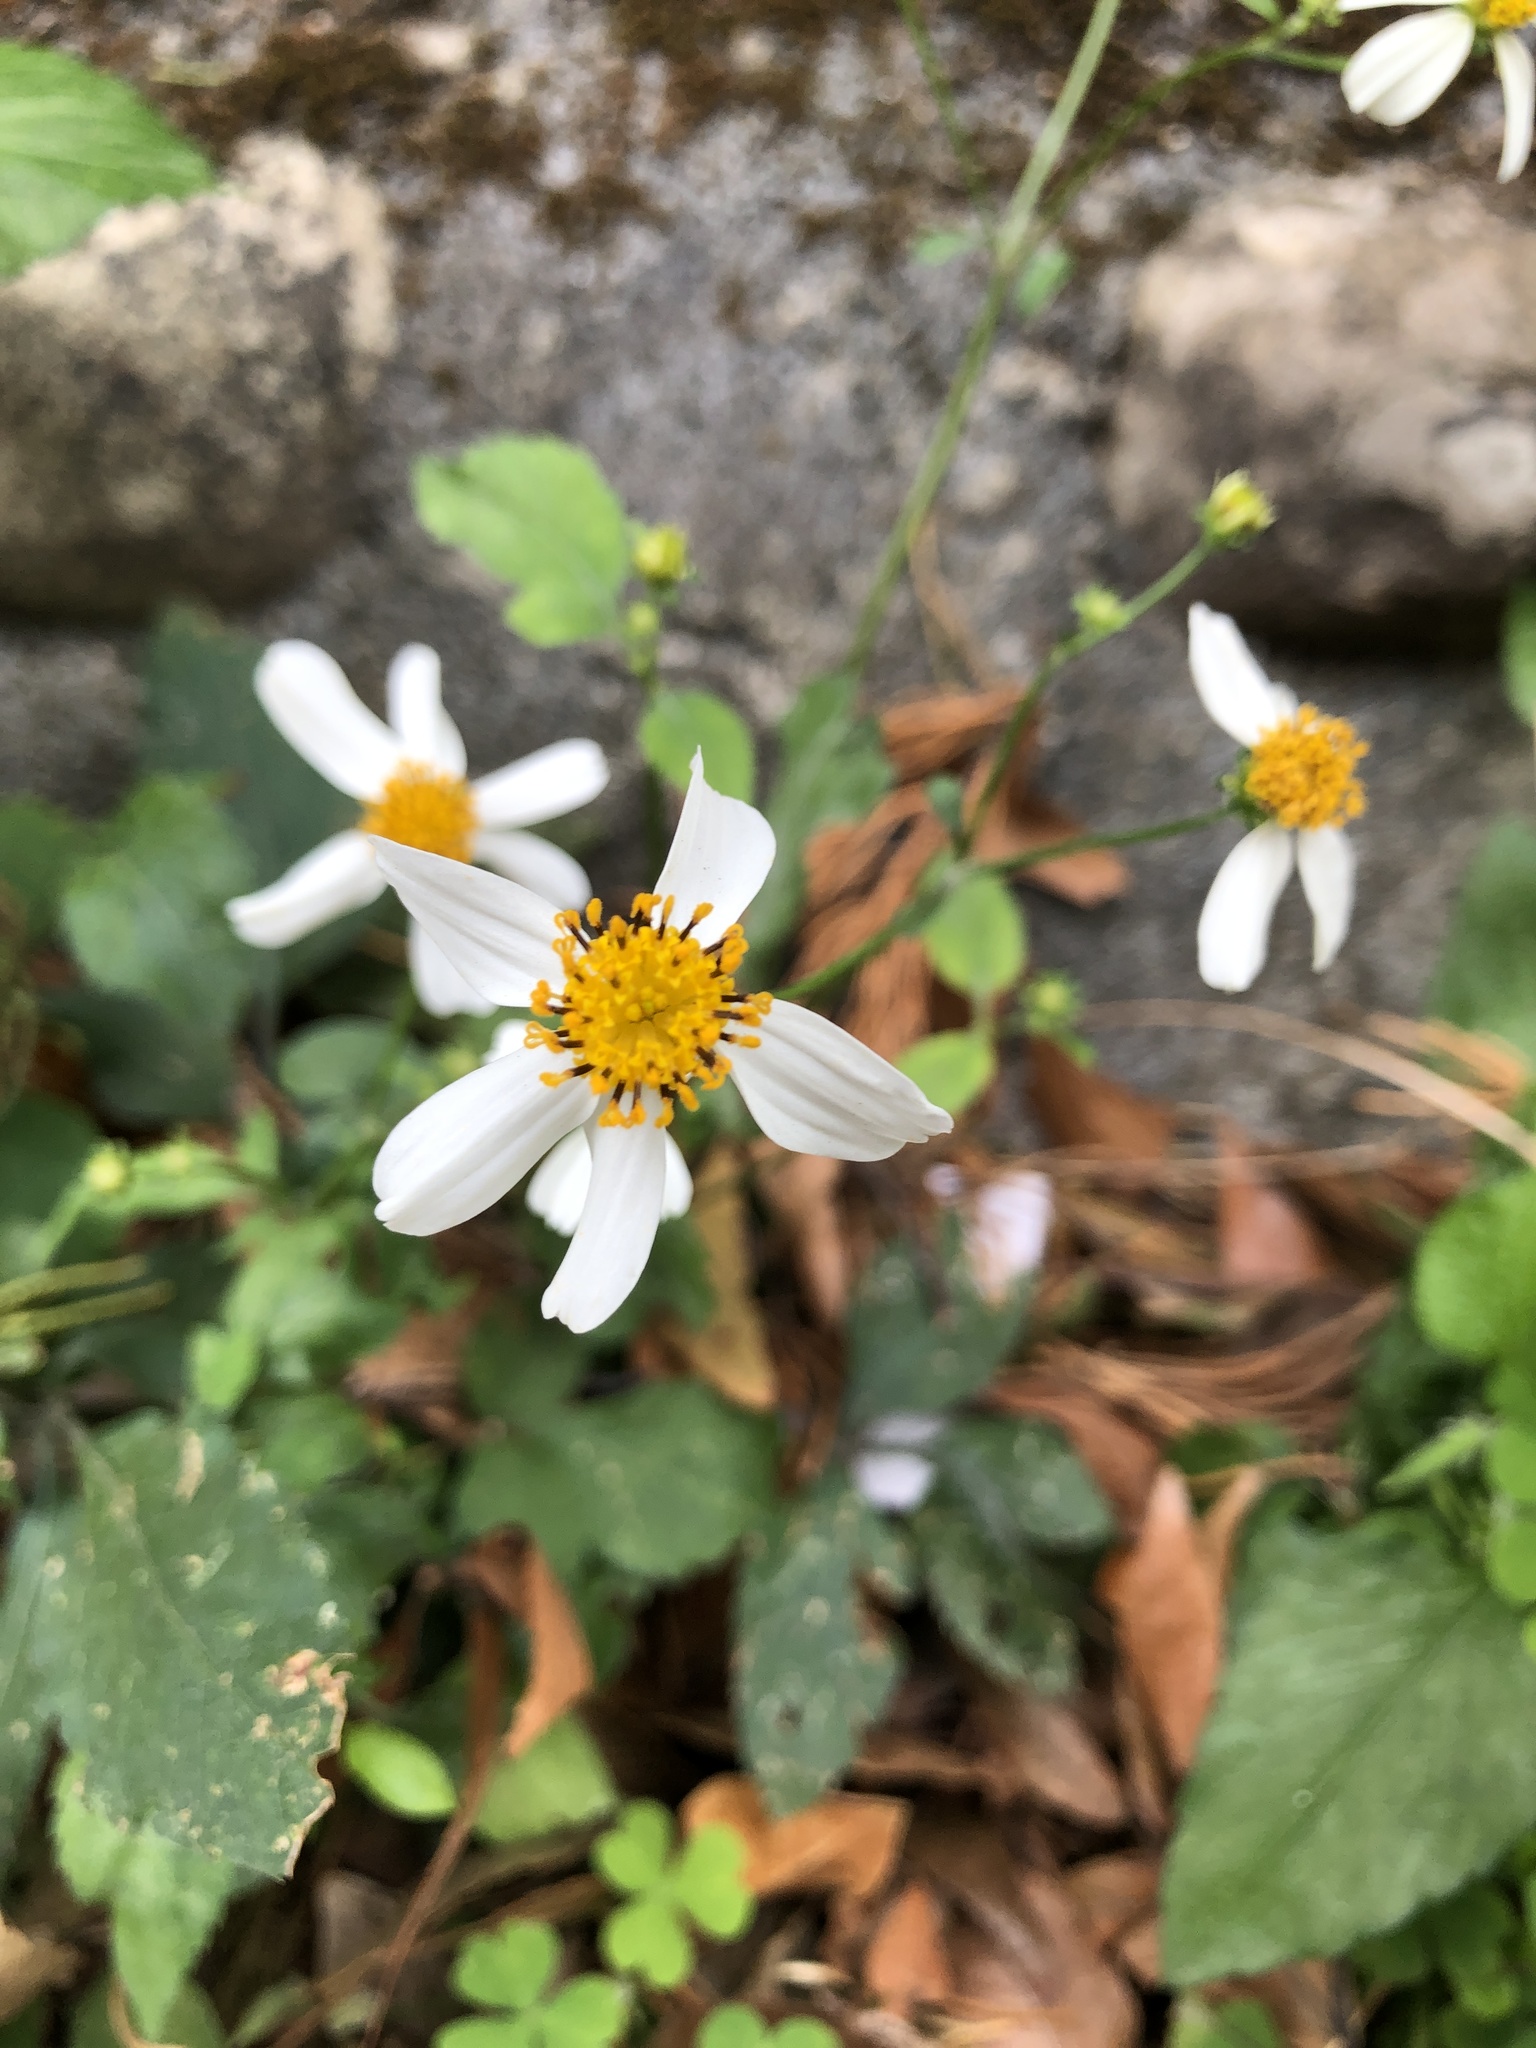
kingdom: Plantae
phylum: Tracheophyta
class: Magnoliopsida
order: Asterales
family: Asteraceae
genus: Bidens
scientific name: Bidens alba
